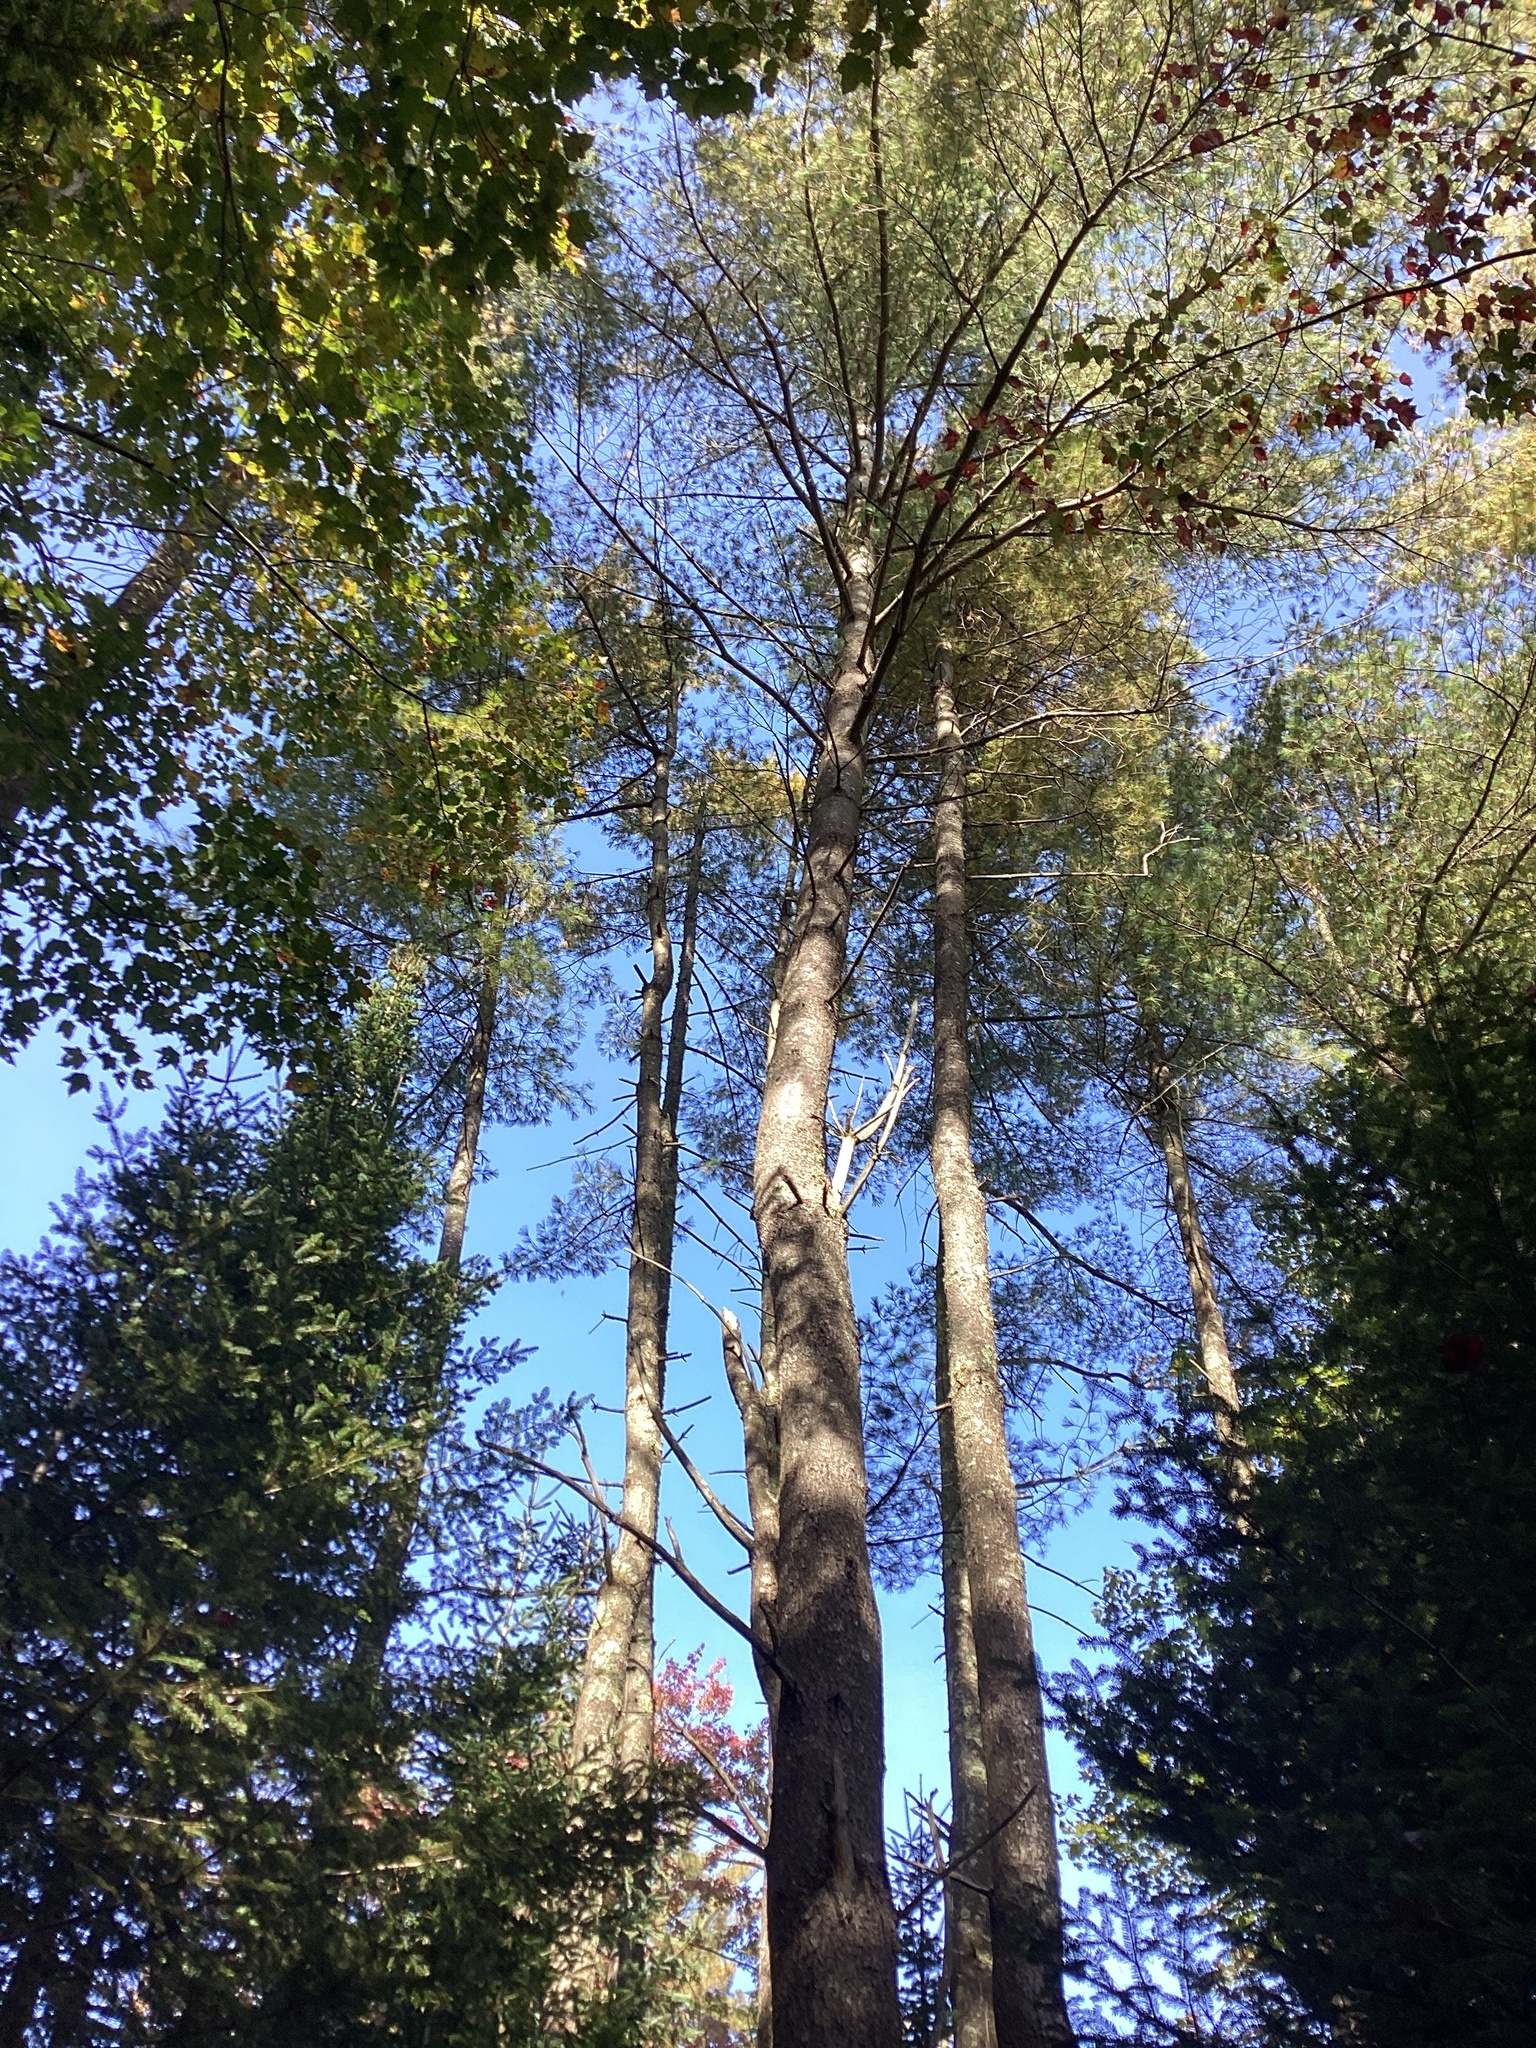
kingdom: Plantae
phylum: Tracheophyta
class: Pinopsida
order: Pinales
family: Pinaceae
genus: Pinus
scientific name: Pinus strobus
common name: Weymouth pine
